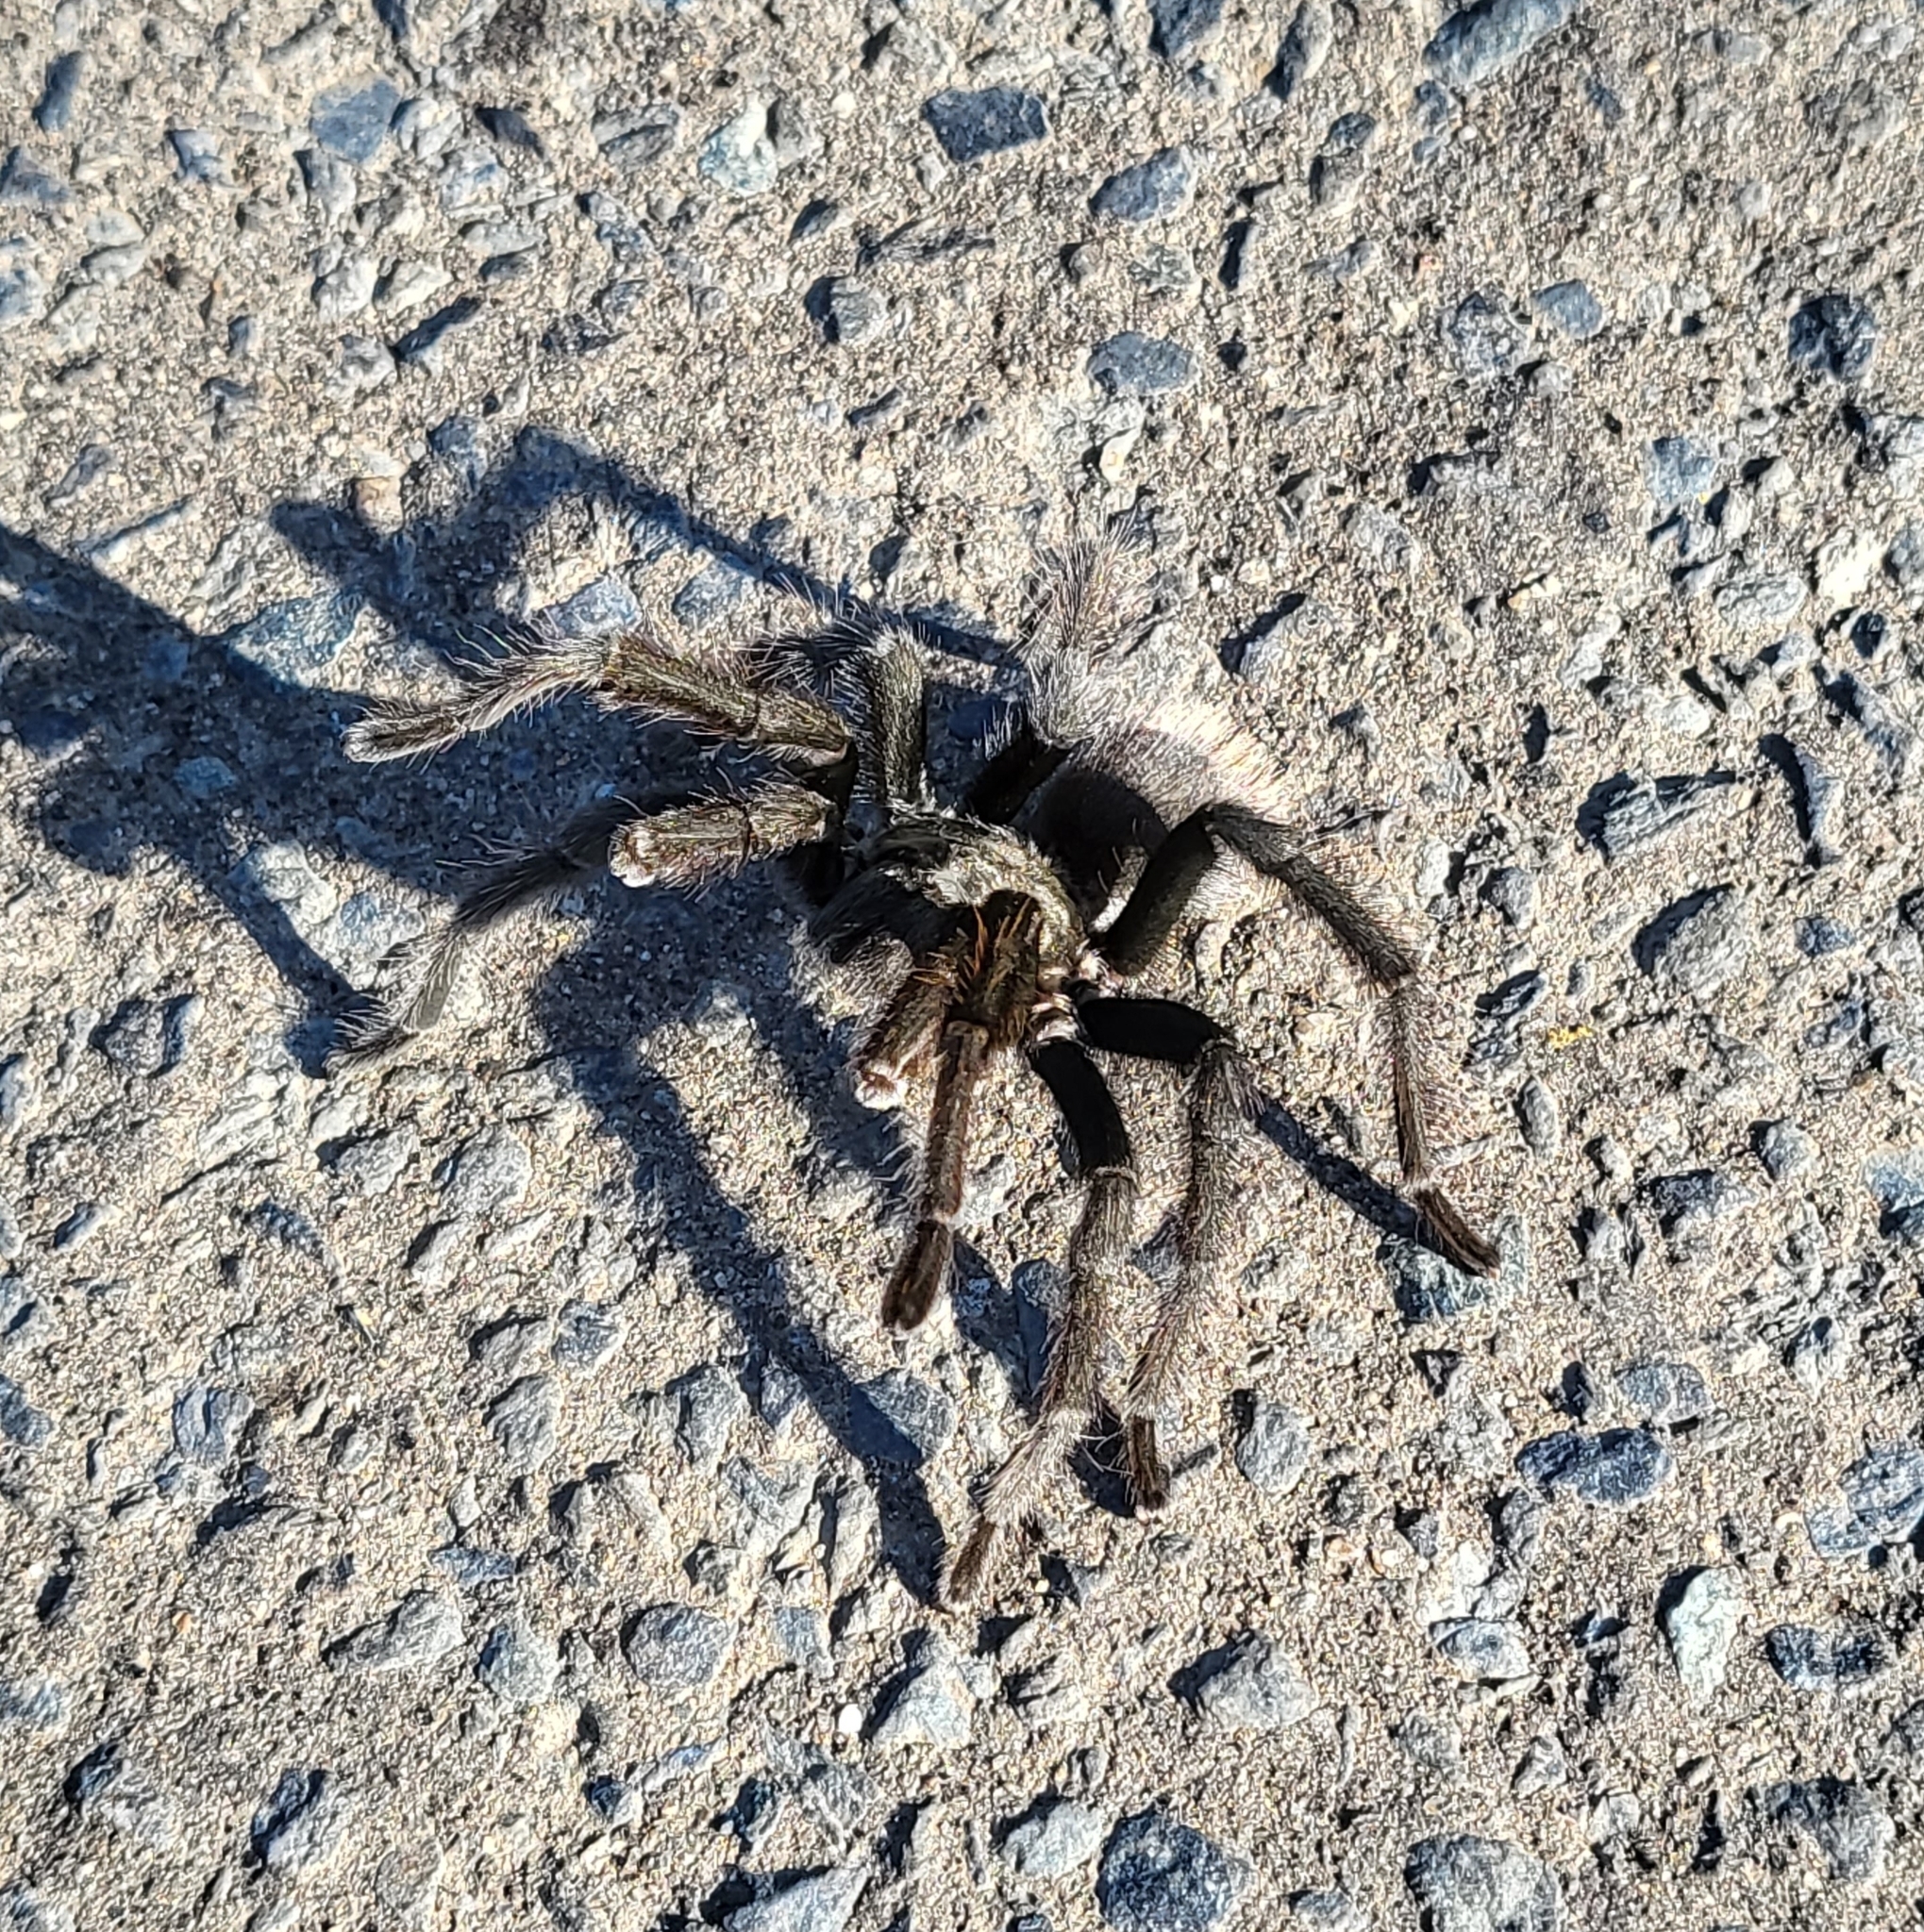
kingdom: Animalia
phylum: Arthropoda
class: Arachnida
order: Araneae
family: Theraphosidae
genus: Aphonopelma
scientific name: Aphonopelma johnnycashi
